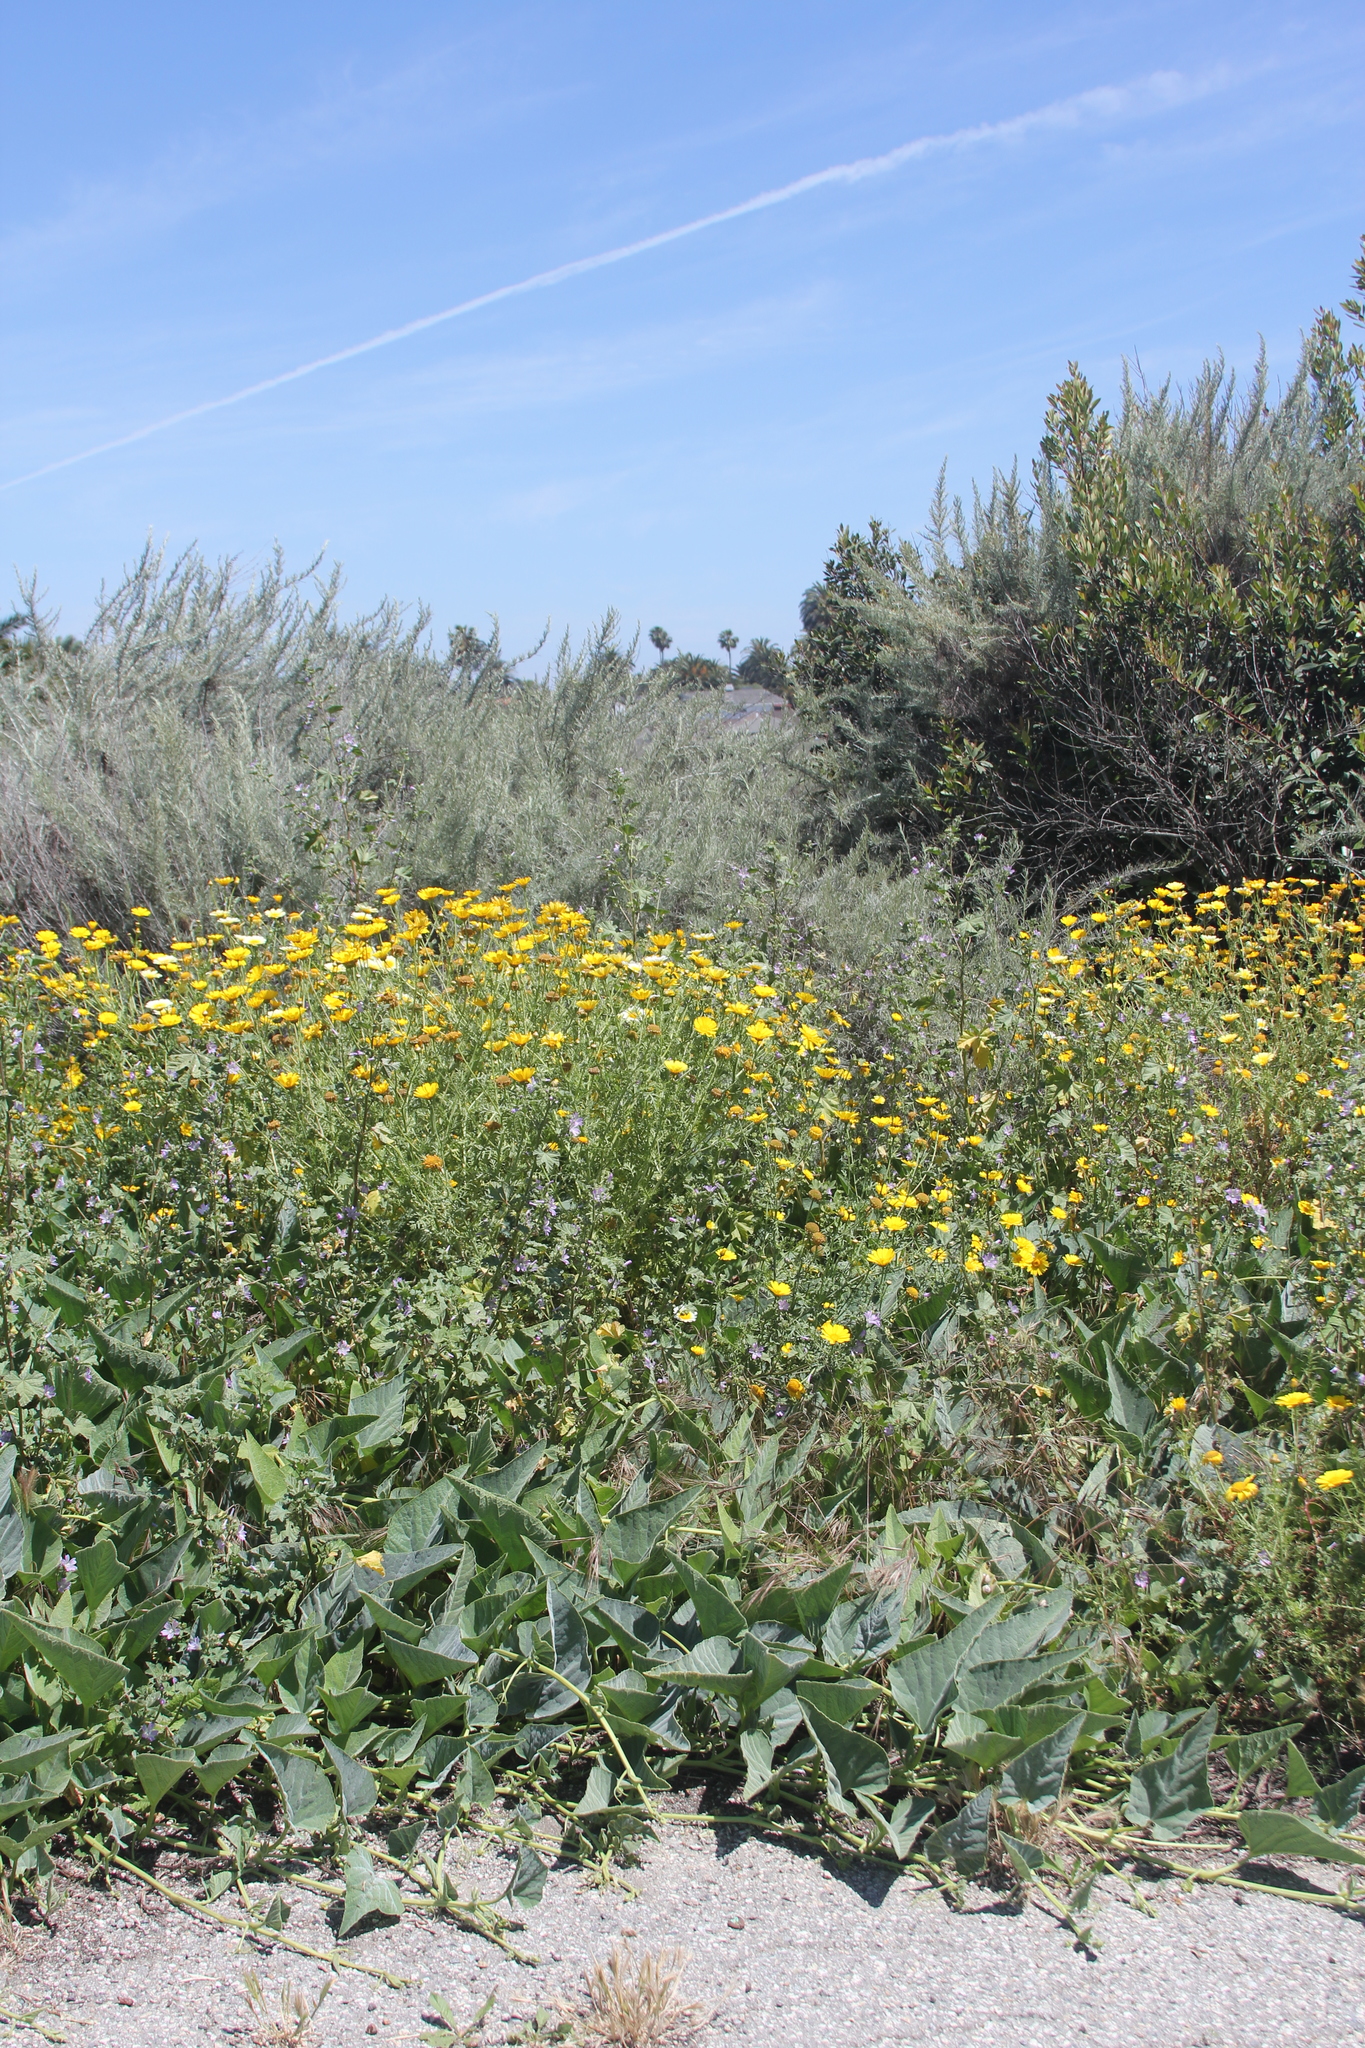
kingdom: Plantae
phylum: Tracheophyta
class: Magnoliopsida
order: Cucurbitales
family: Cucurbitaceae
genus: Cucurbita
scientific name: Cucurbita foetidissima
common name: Buffalo gourd
